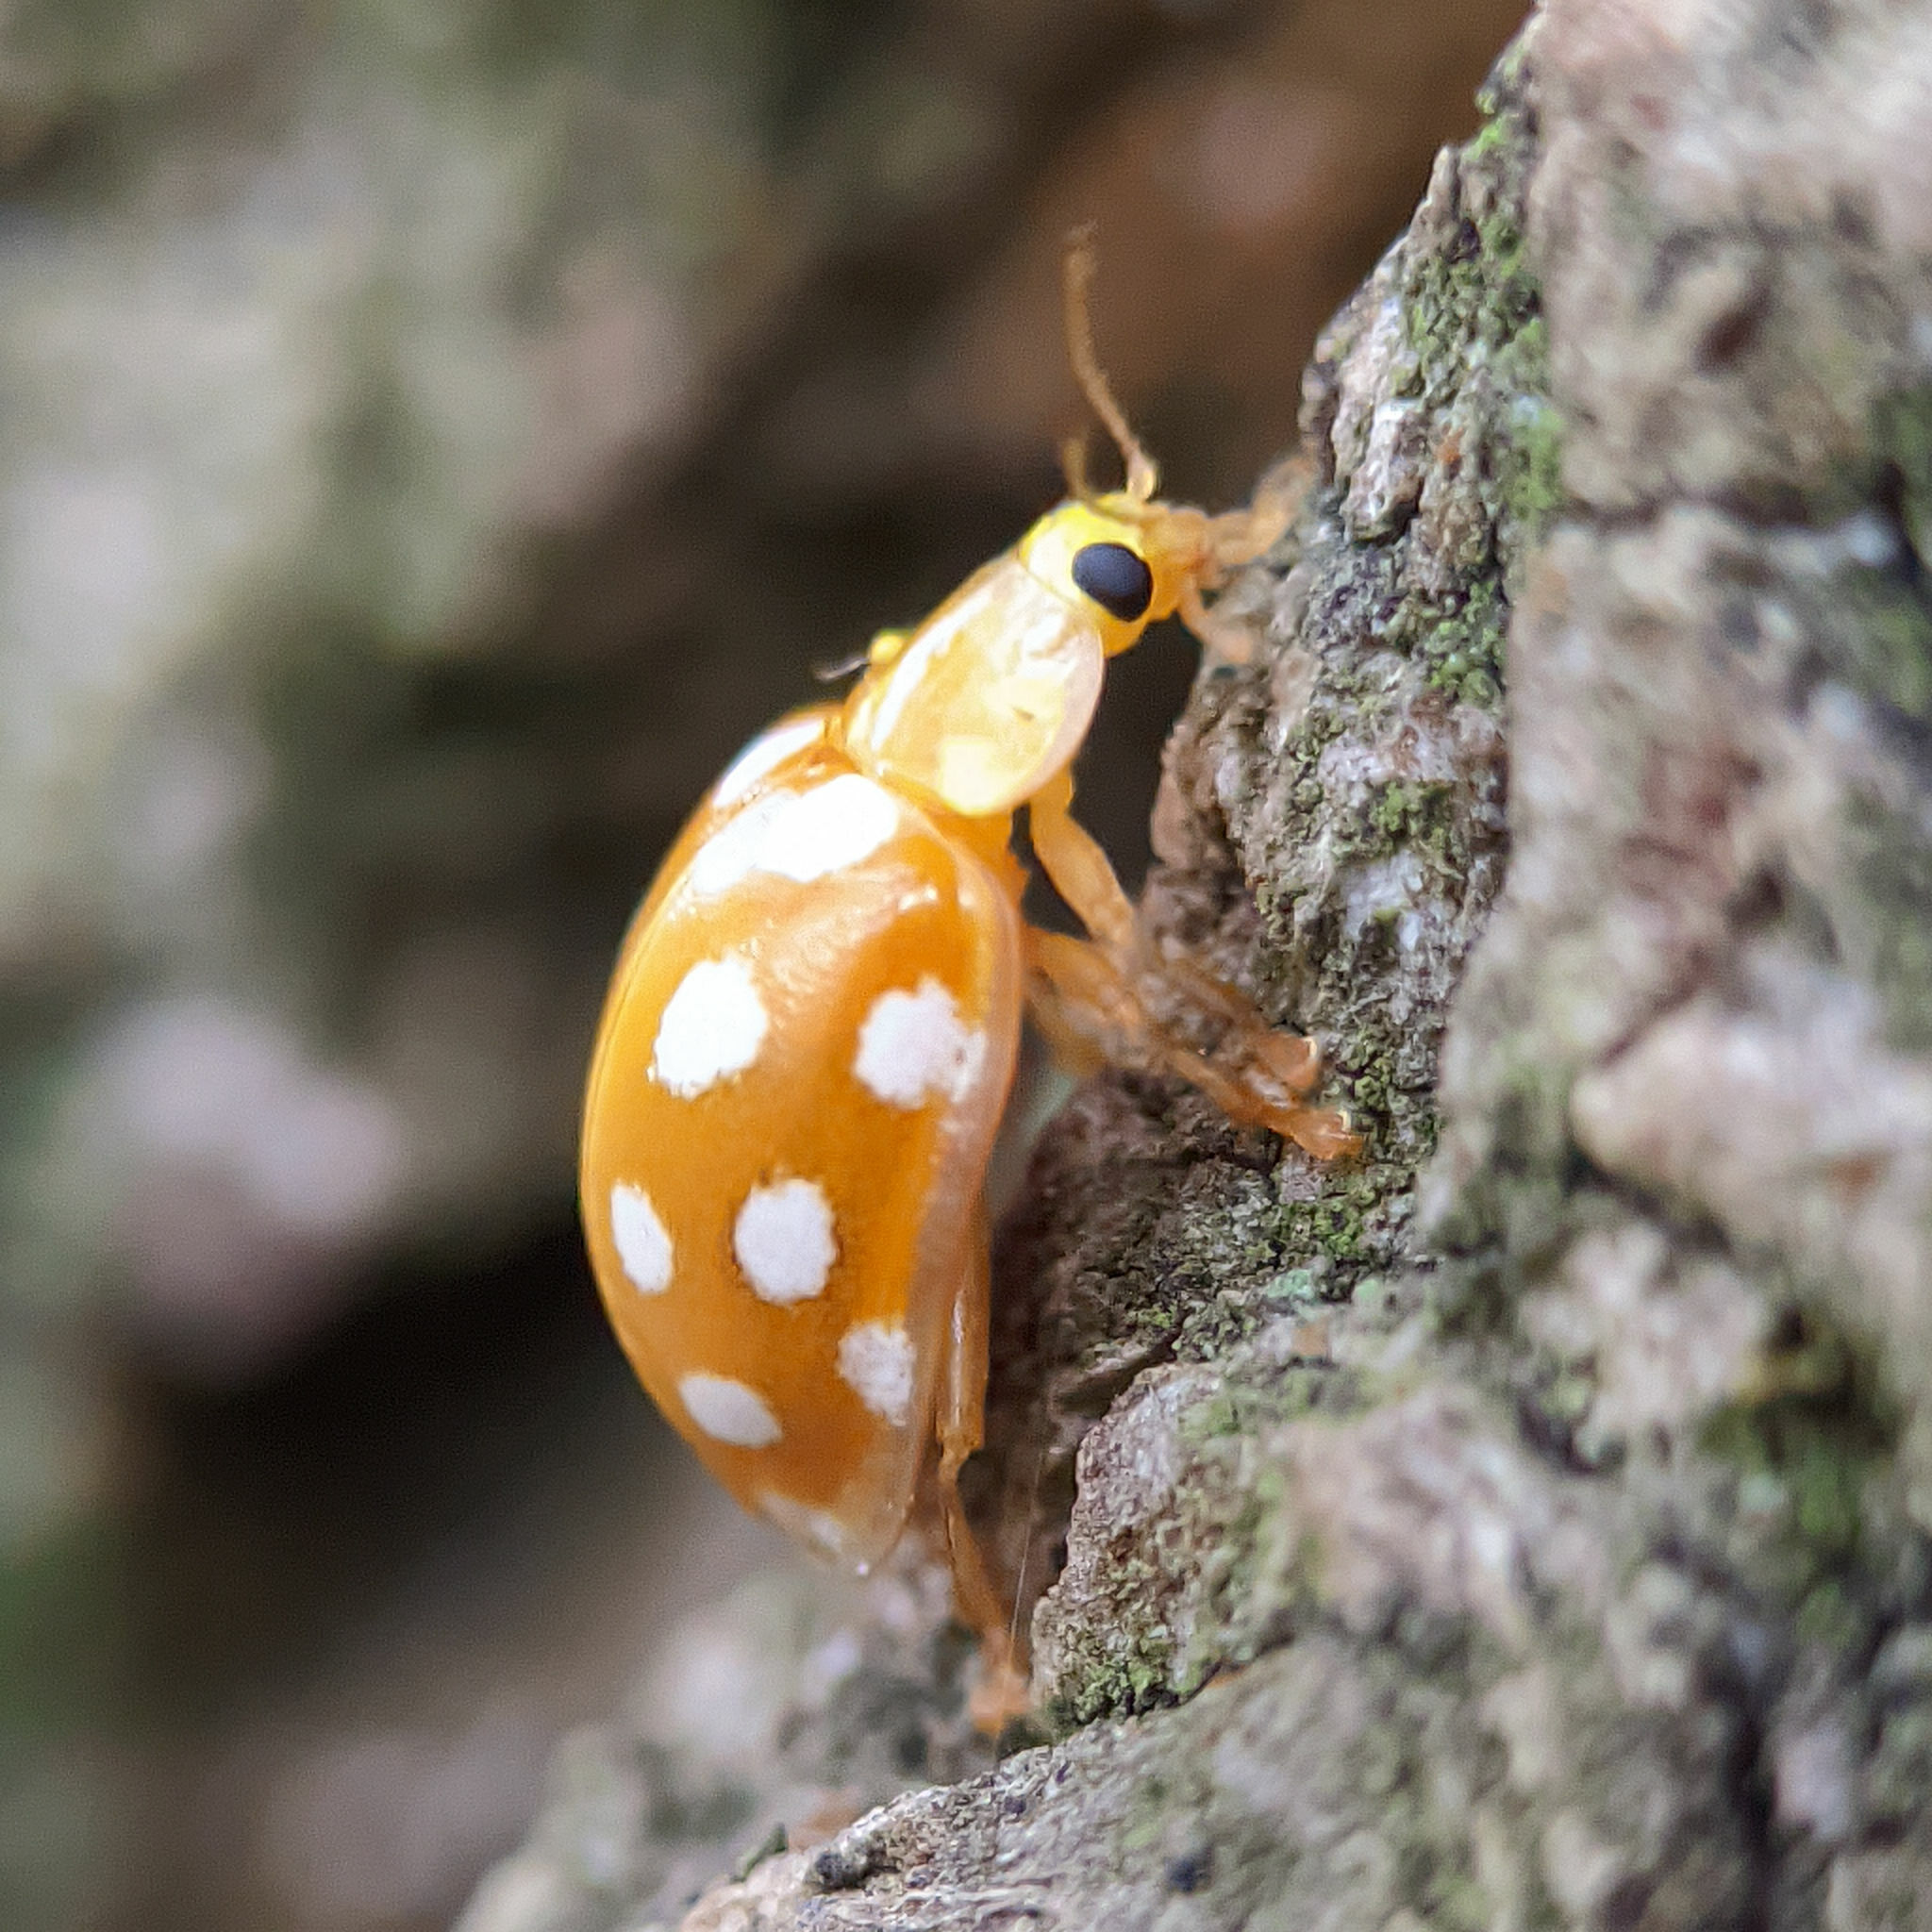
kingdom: Animalia
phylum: Arthropoda
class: Insecta
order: Coleoptera
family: Coccinellidae
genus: Halyzia
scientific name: Halyzia sedecimguttata
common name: Orange ladybird
